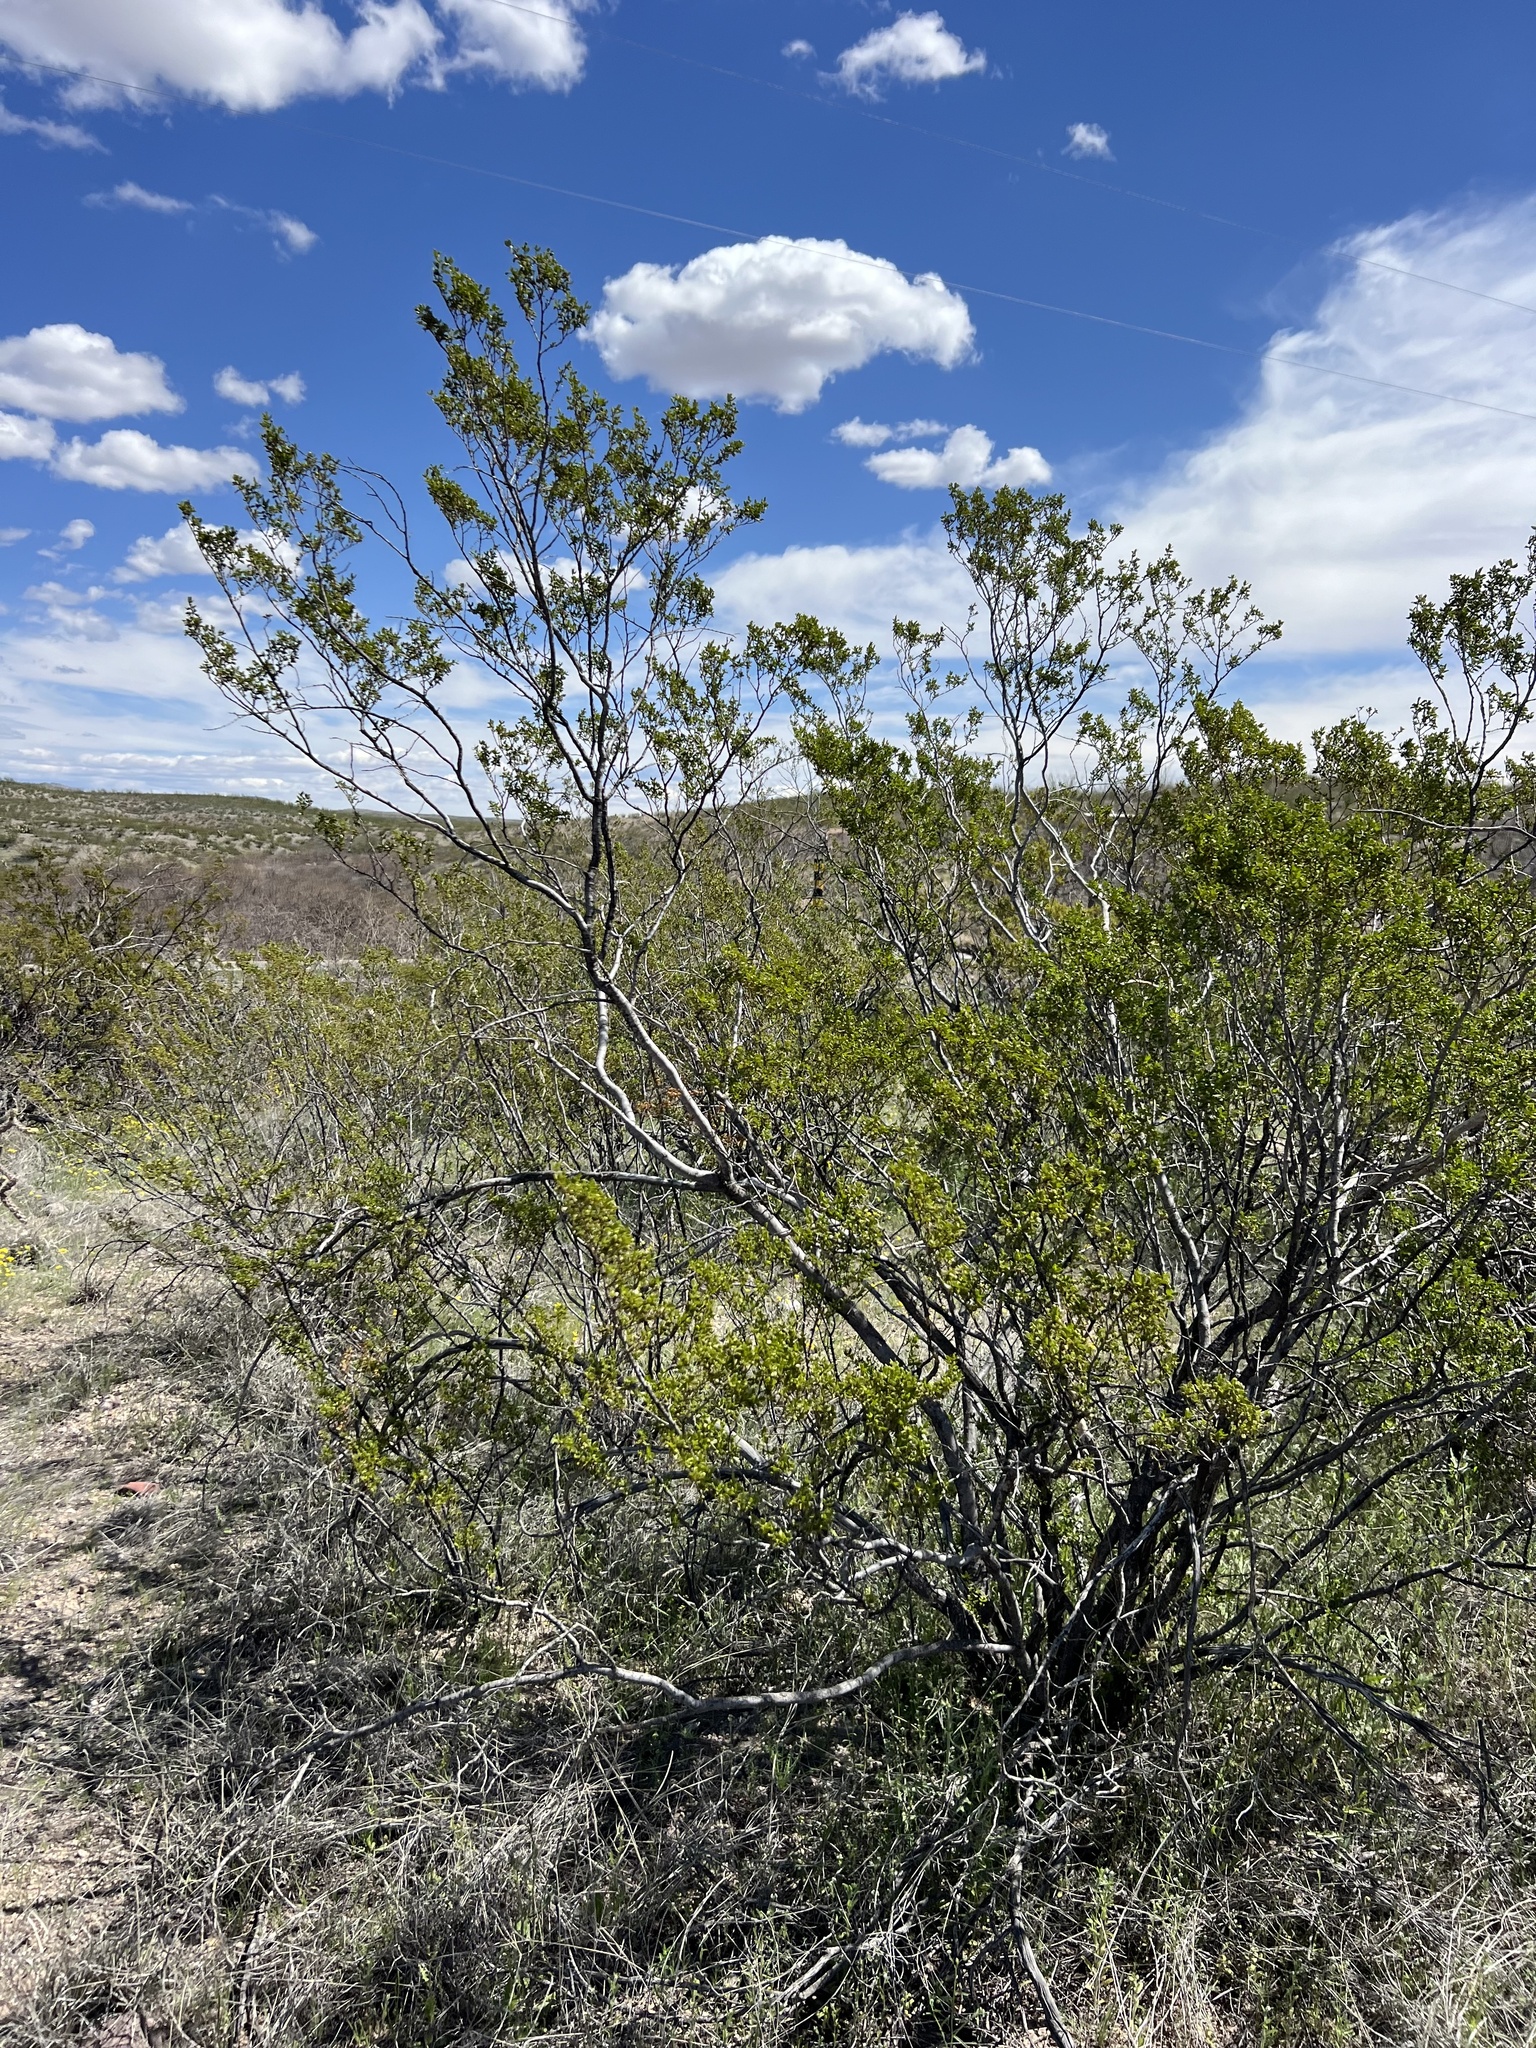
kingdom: Plantae
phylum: Tracheophyta
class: Magnoliopsida
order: Zygophyllales
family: Zygophyllaceae
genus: Larrea
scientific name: Larrea tridentata
